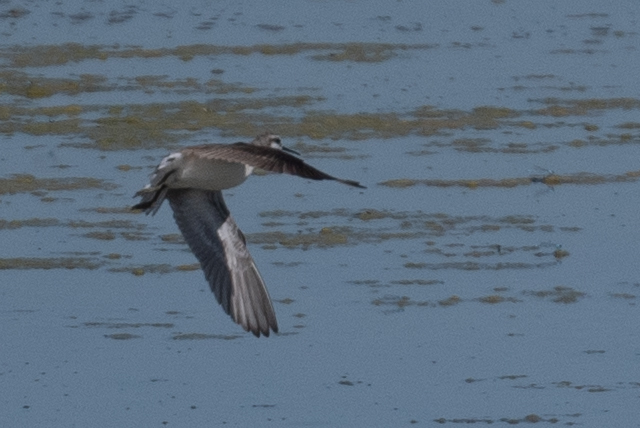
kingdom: Animalia
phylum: Chordata
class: Aves
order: Charadriiformes
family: Scolopacidae
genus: Phalaropus
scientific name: Phalaropus tricolor
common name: Wilson's phalarope
